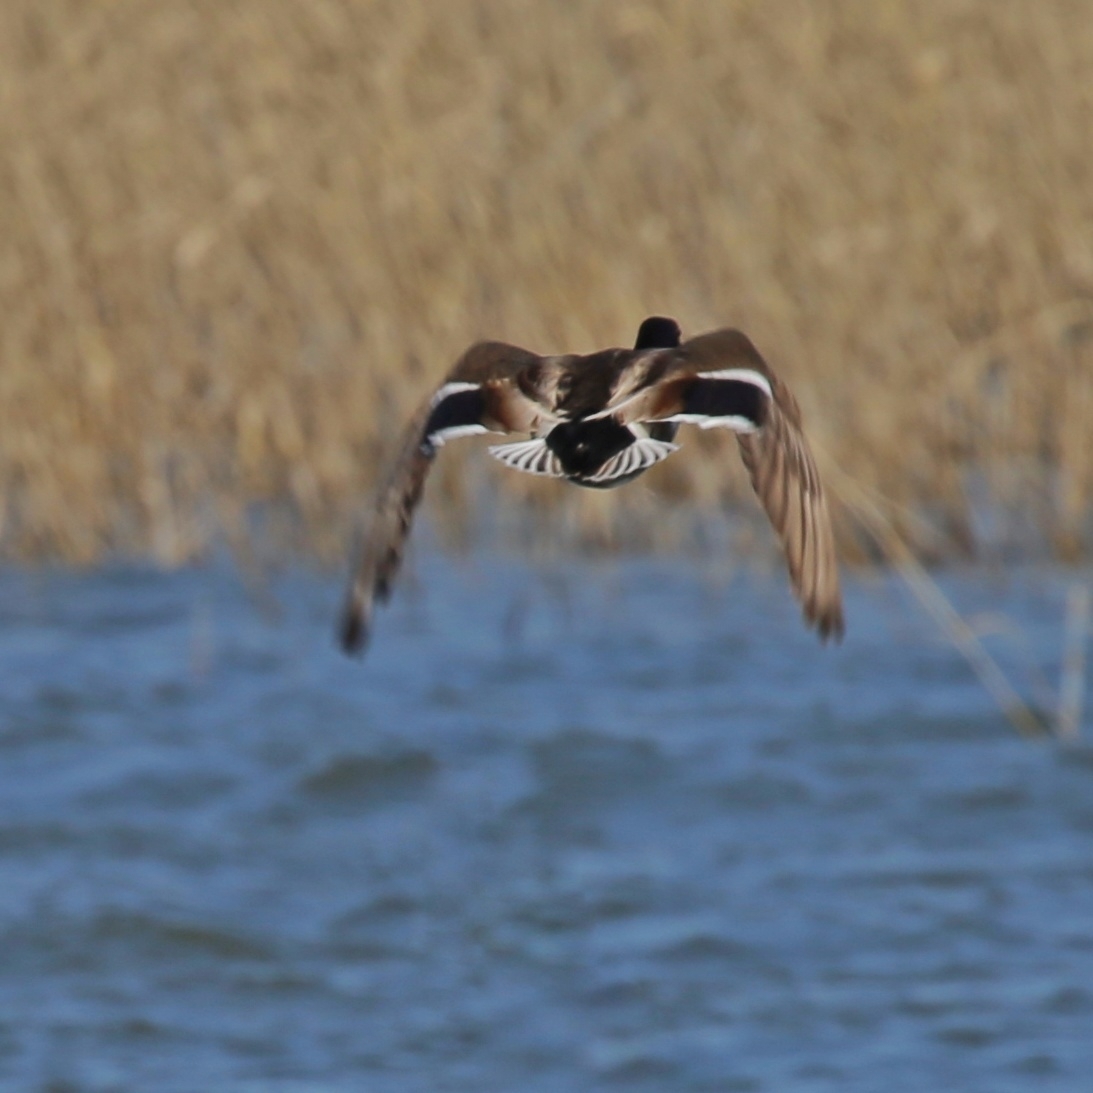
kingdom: Animalia
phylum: Chordata
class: Aves
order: Anseriformes
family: Anatidae
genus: Anas
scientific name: Anas platyrhynchos
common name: Mallard
